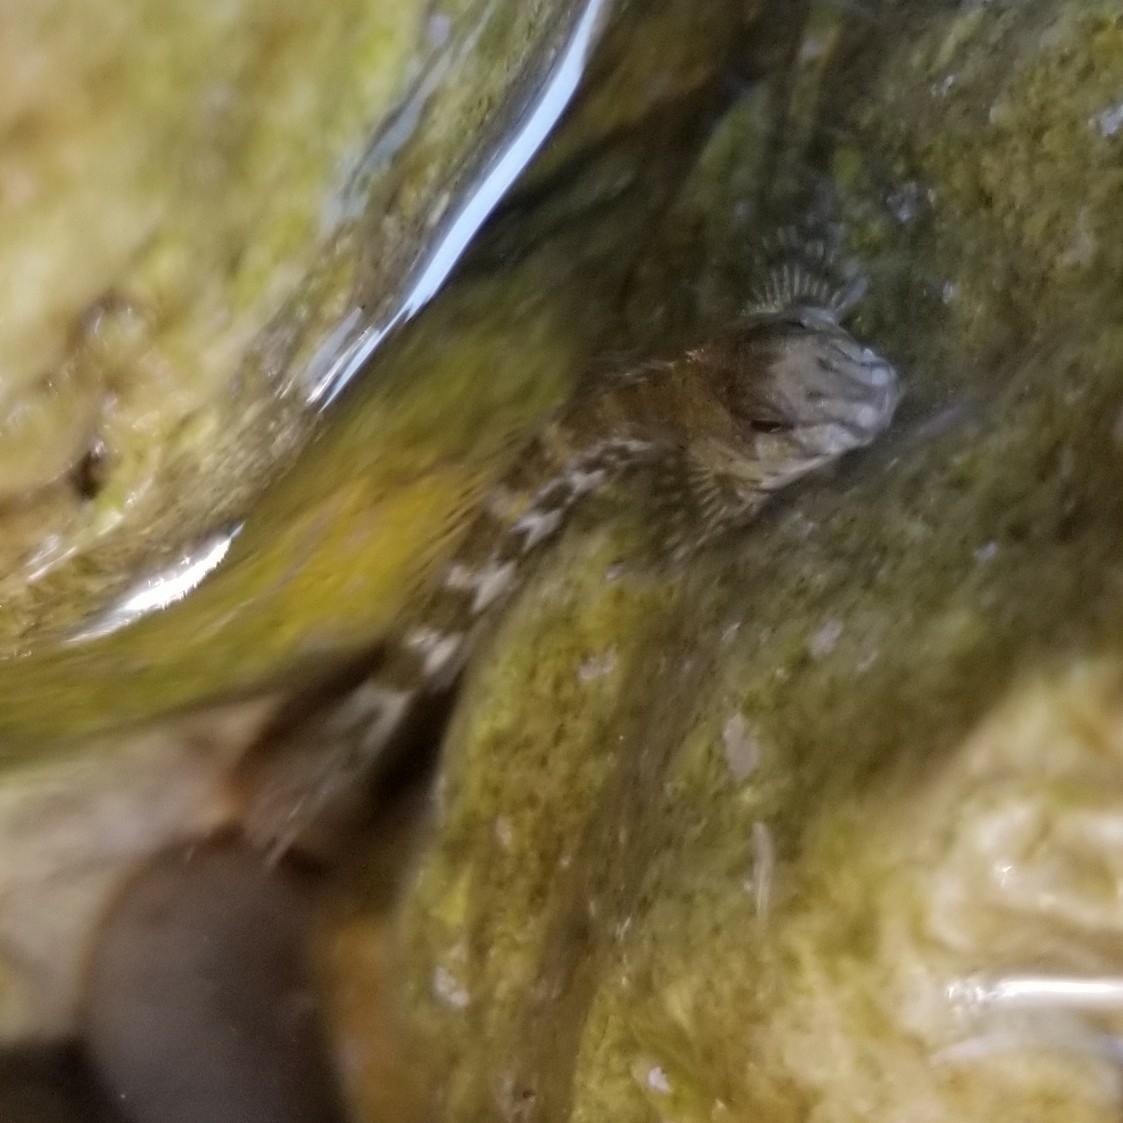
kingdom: Animalia
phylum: Chordata
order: Perciformes
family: Blenniidae
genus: Coryphoblennius
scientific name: Coryphoblennius galerita
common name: Montagu's blenny
